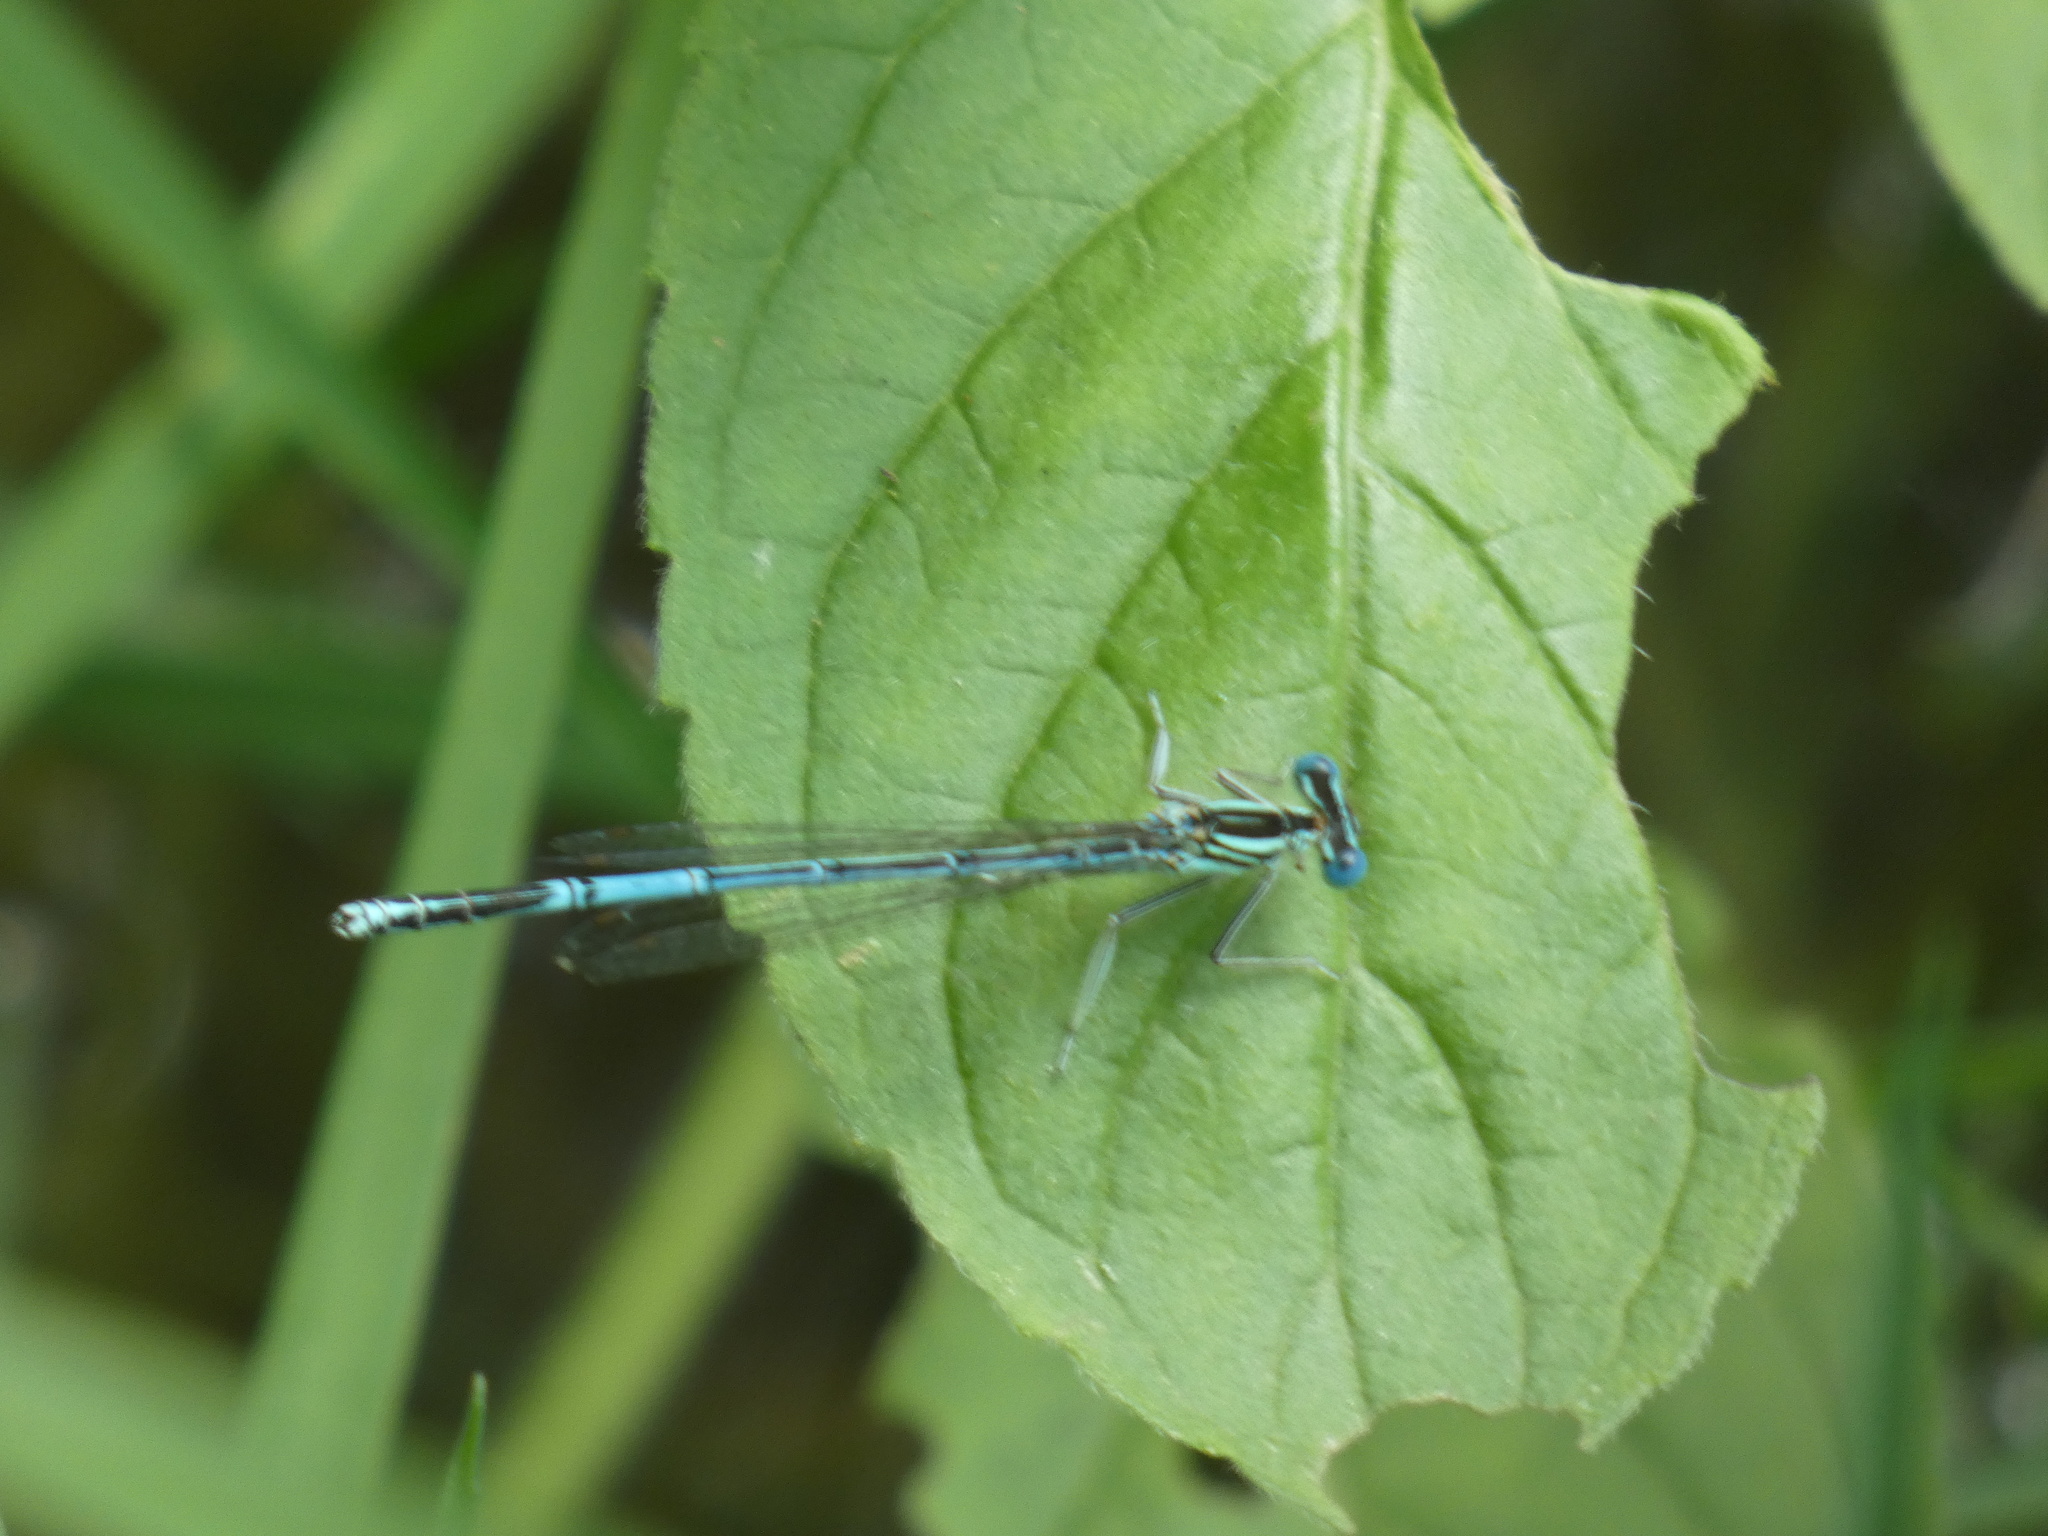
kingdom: Animalia
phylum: Arthropoda
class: Insecta
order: Odonata
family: Platycnemididae
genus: Platycnemis
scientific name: Platycnemis pennipes
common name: White-legged damselfly
